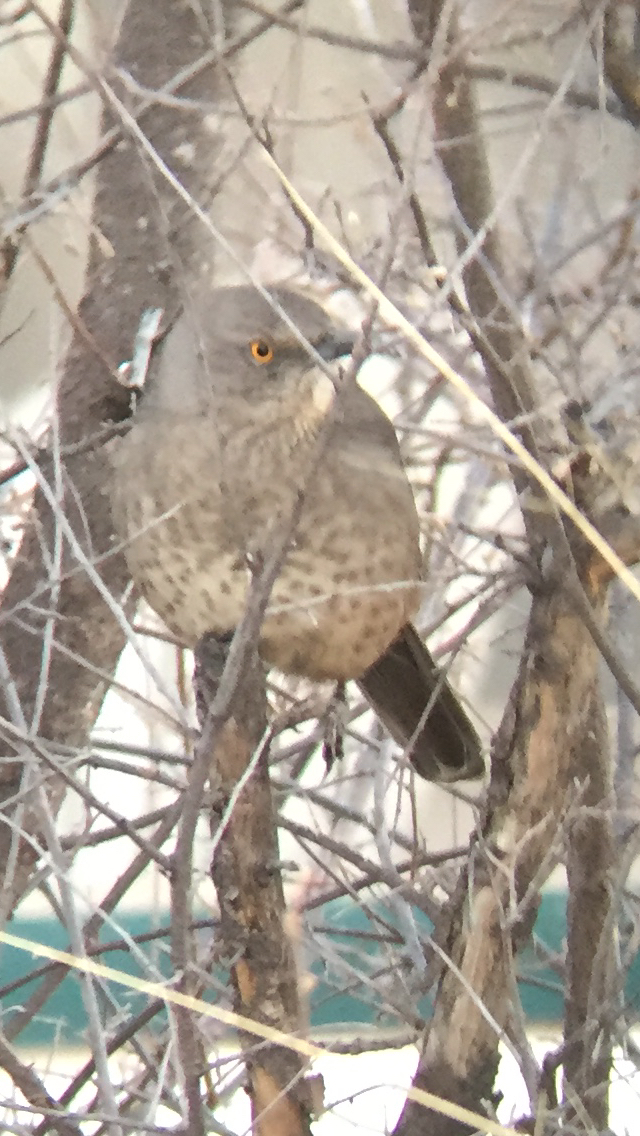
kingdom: Animalia
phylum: Chordata
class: Aves
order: Passeriformes
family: Mimidae
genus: Toxostoma
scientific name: Toxostoma bendirei
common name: Bendire's thrasher
